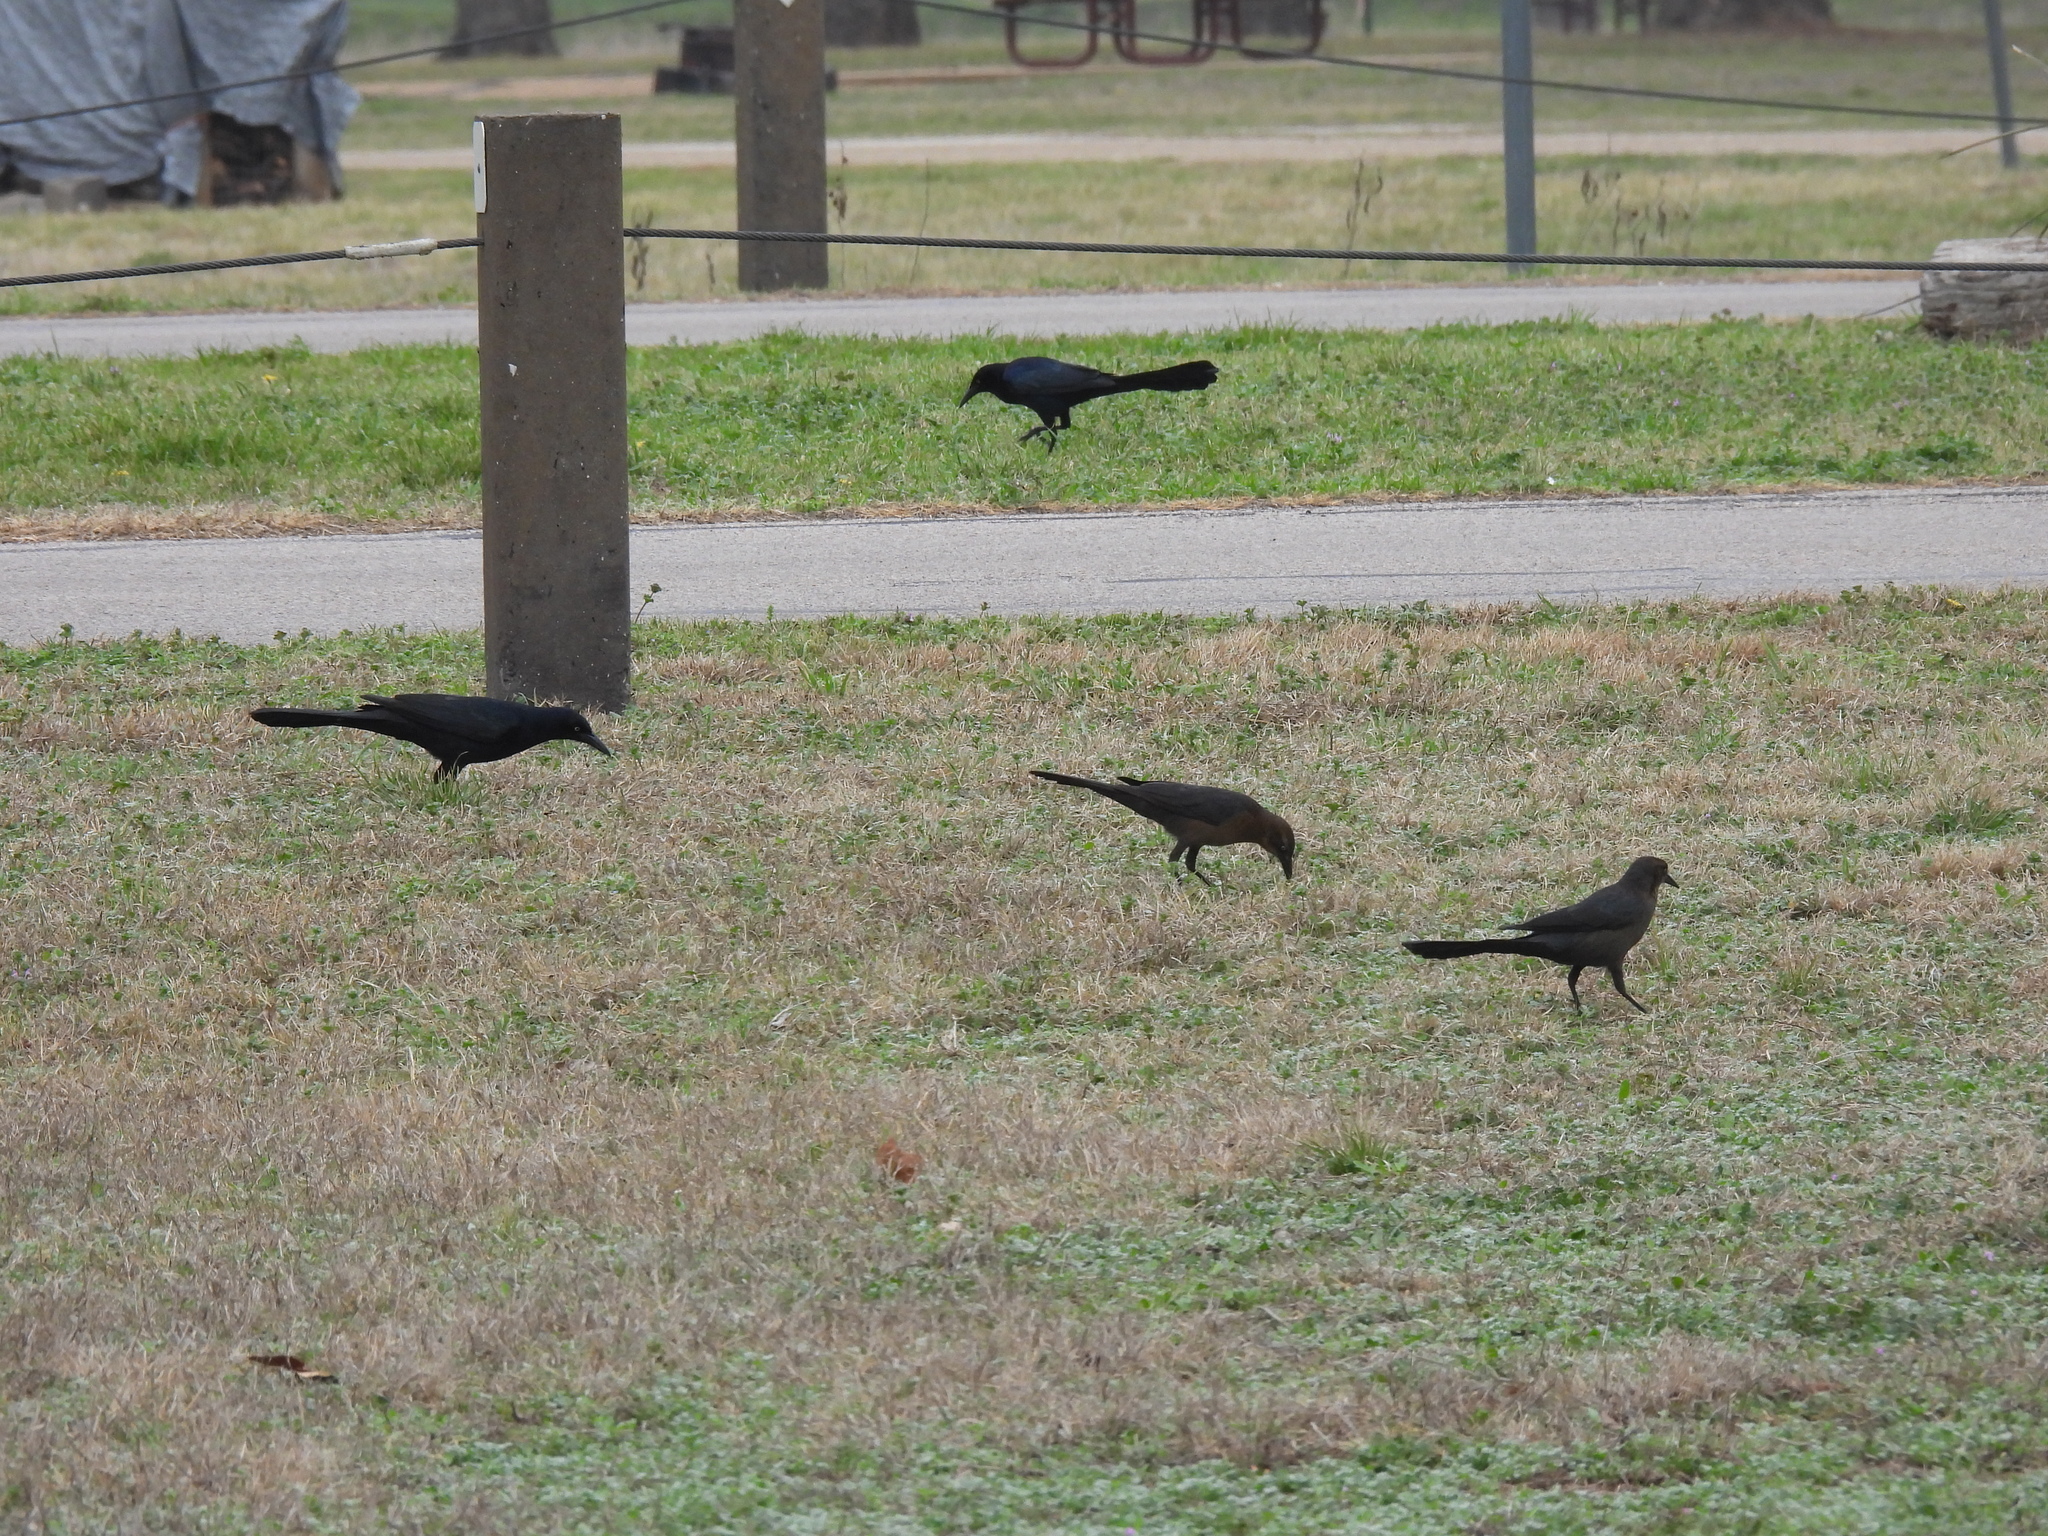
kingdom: Animalia
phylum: Chordata
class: Aves
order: Passeriformes
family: Icteridae
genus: Quiscalus
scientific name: Quiscalus mexicanus
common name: Great-tailed grackle
